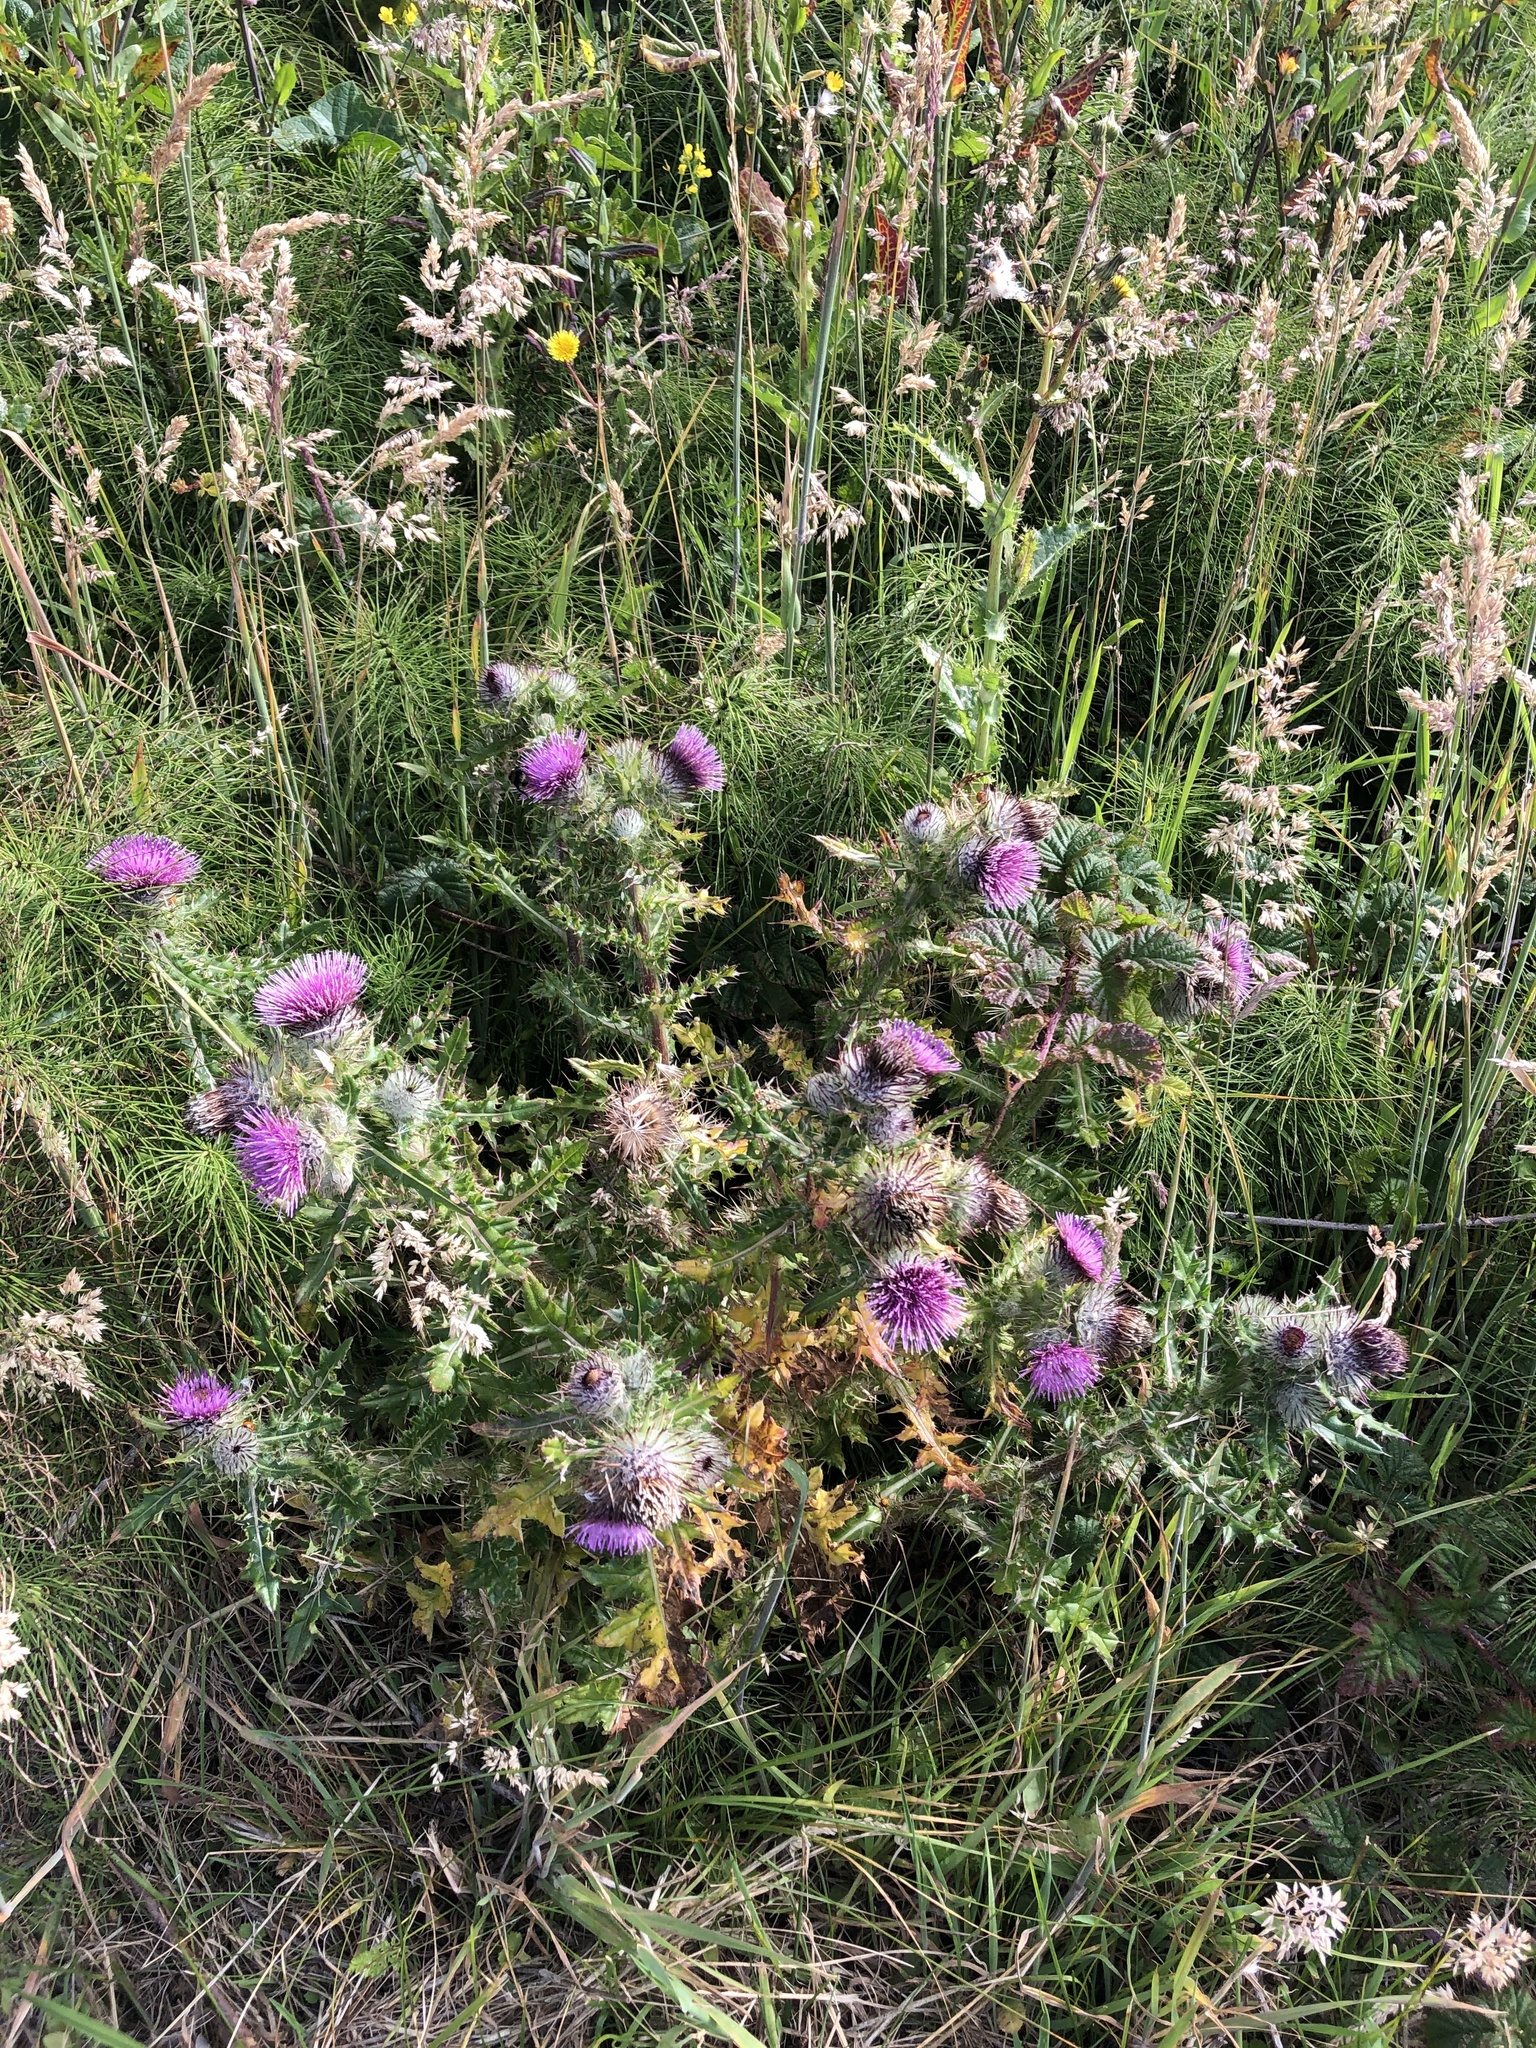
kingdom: Plantae
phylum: Tracheophyta
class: Magnoliopsida
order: Asterales
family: Asteraceae
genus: Cirsium
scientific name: Cirsium edule
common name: Indian thistle
